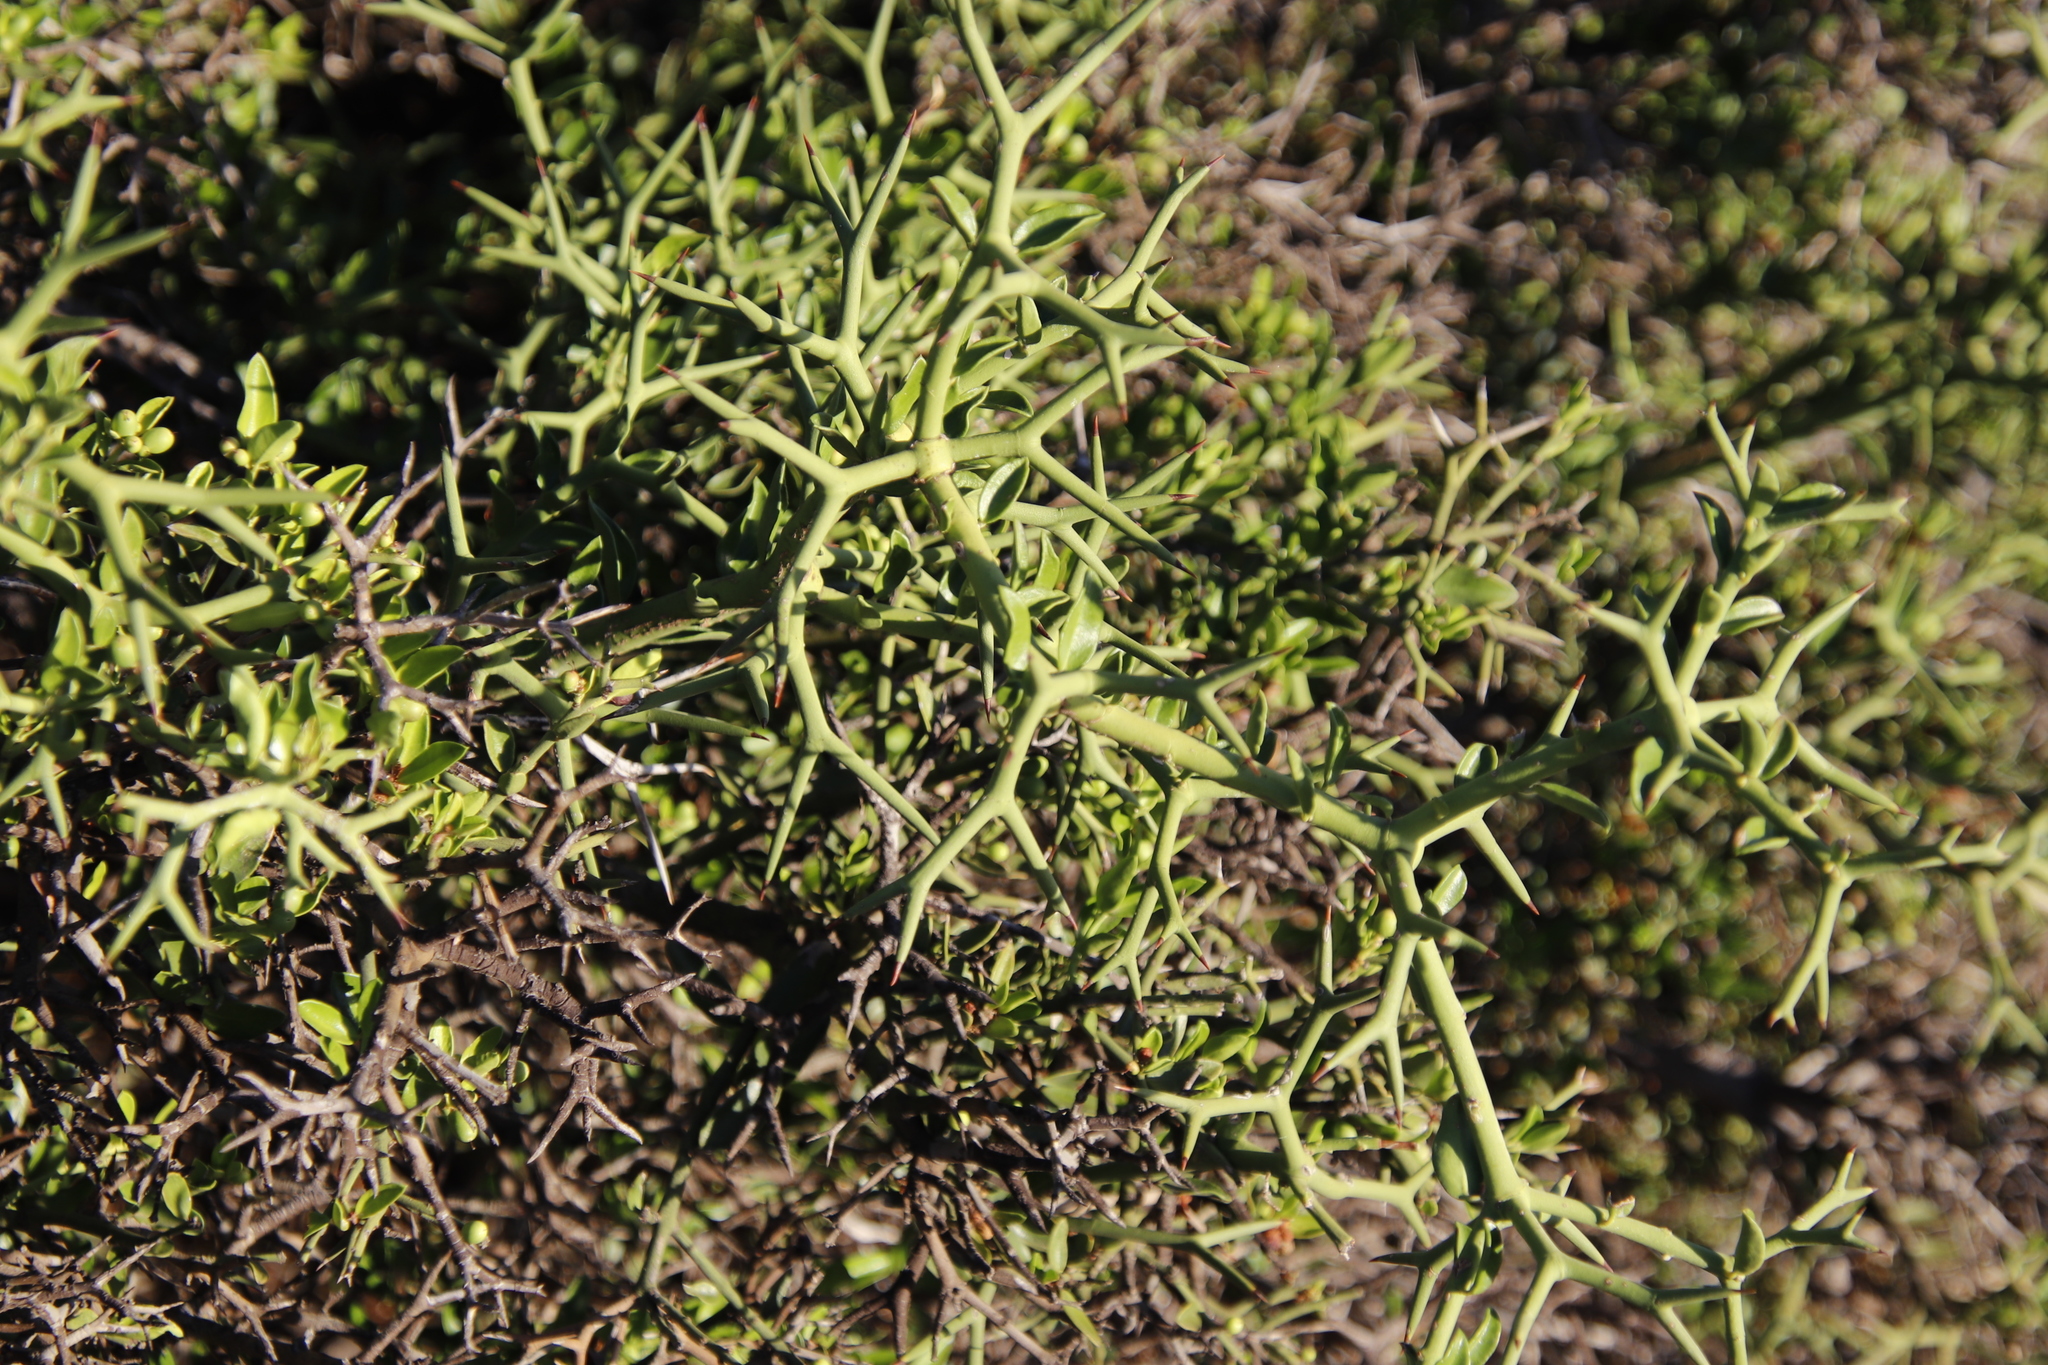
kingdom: Plantae
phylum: Tracheophyta
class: Magnoliopsida
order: Gentianales
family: Apocynaceae
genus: Carissa
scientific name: Carissa haematocarpa
